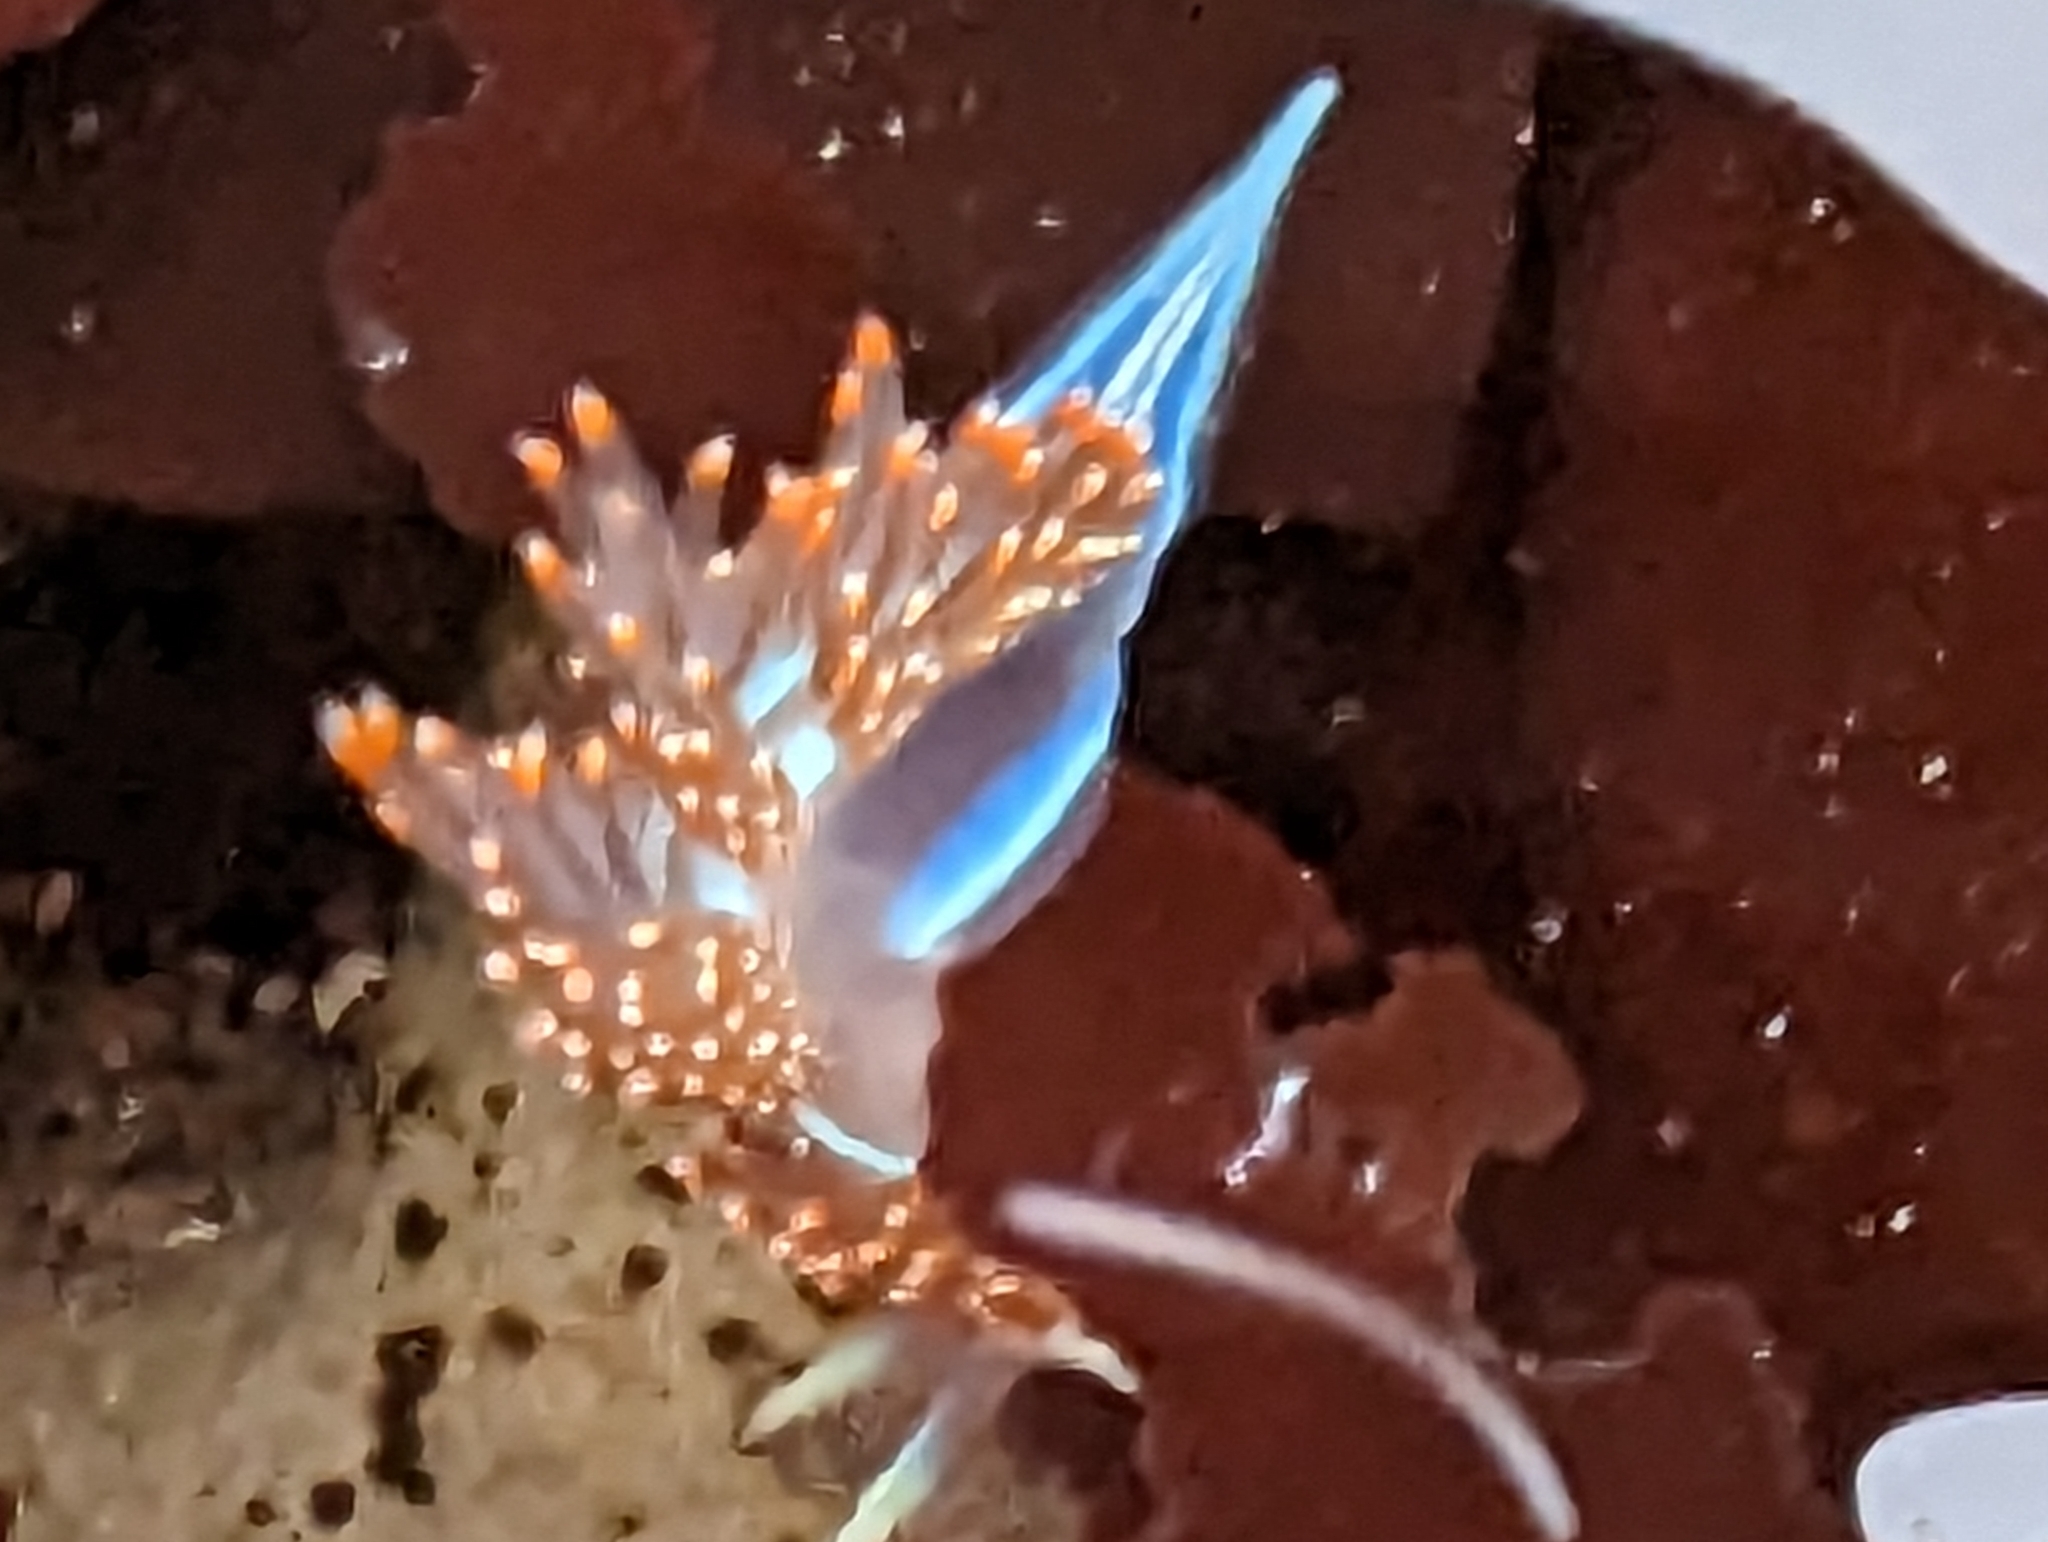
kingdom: Animalia
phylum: Mollusca
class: Gastropoda
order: Nudibranchia
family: Myrrhinidae
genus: Hermissenda
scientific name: Hermissenda opalescens
